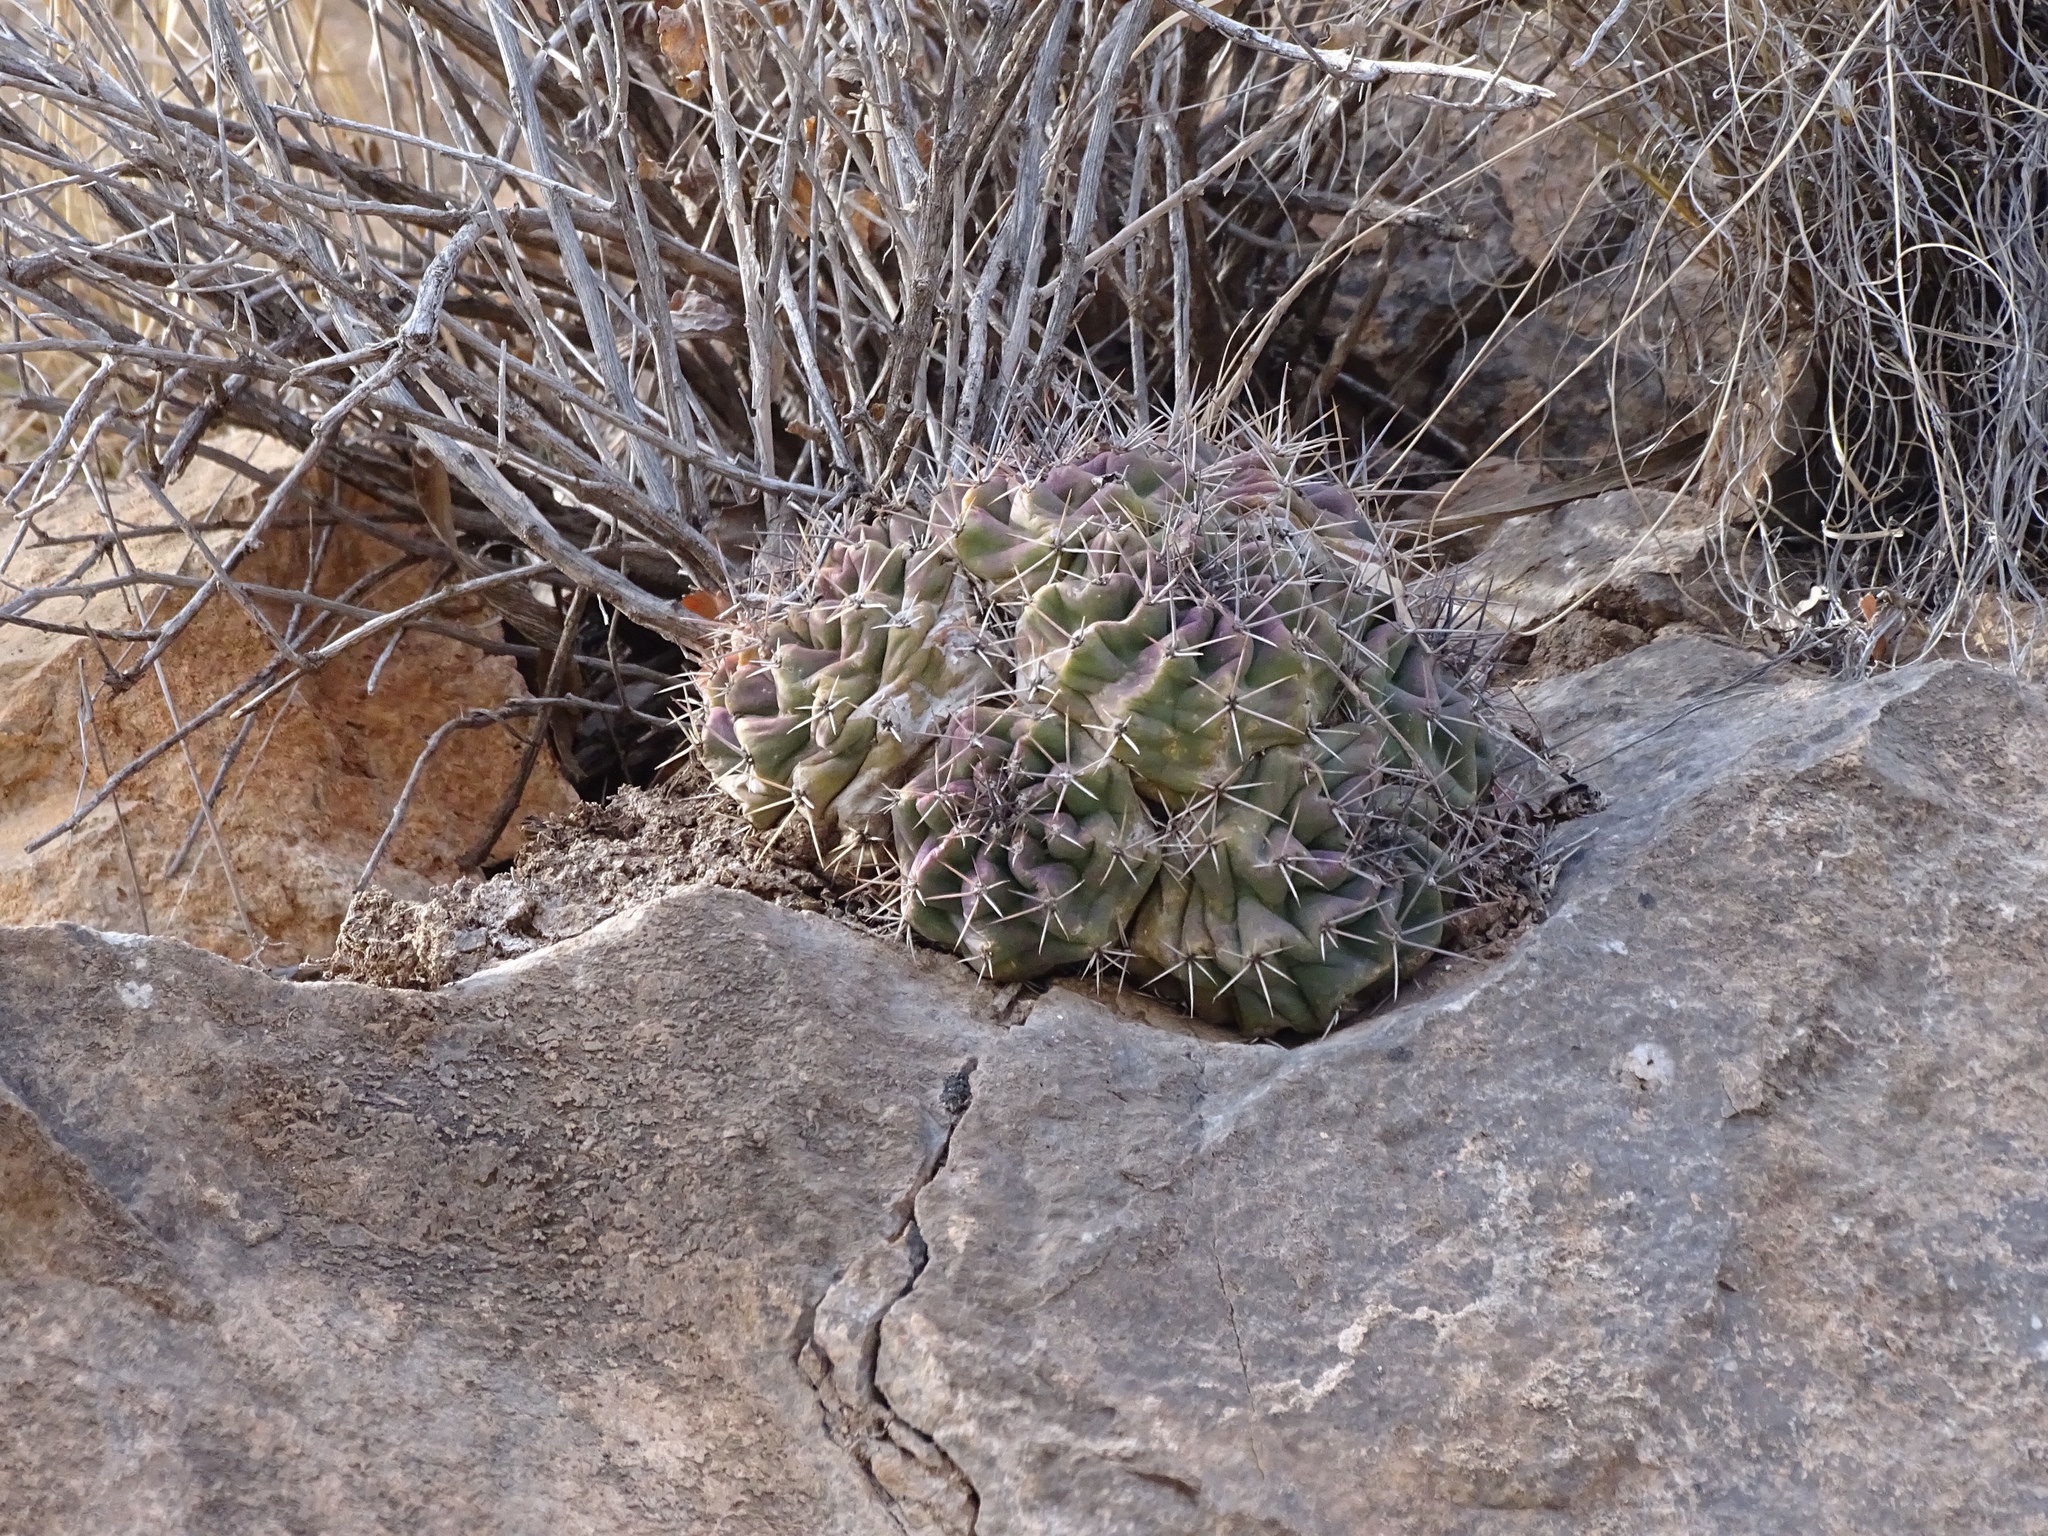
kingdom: Plantae
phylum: Tracheophyta
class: Magnoliopsida
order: Caryophyllales
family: Cactaceae
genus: Echinocereus
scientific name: Echinocereus coccineus
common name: Scarlet hedgehog cactus
